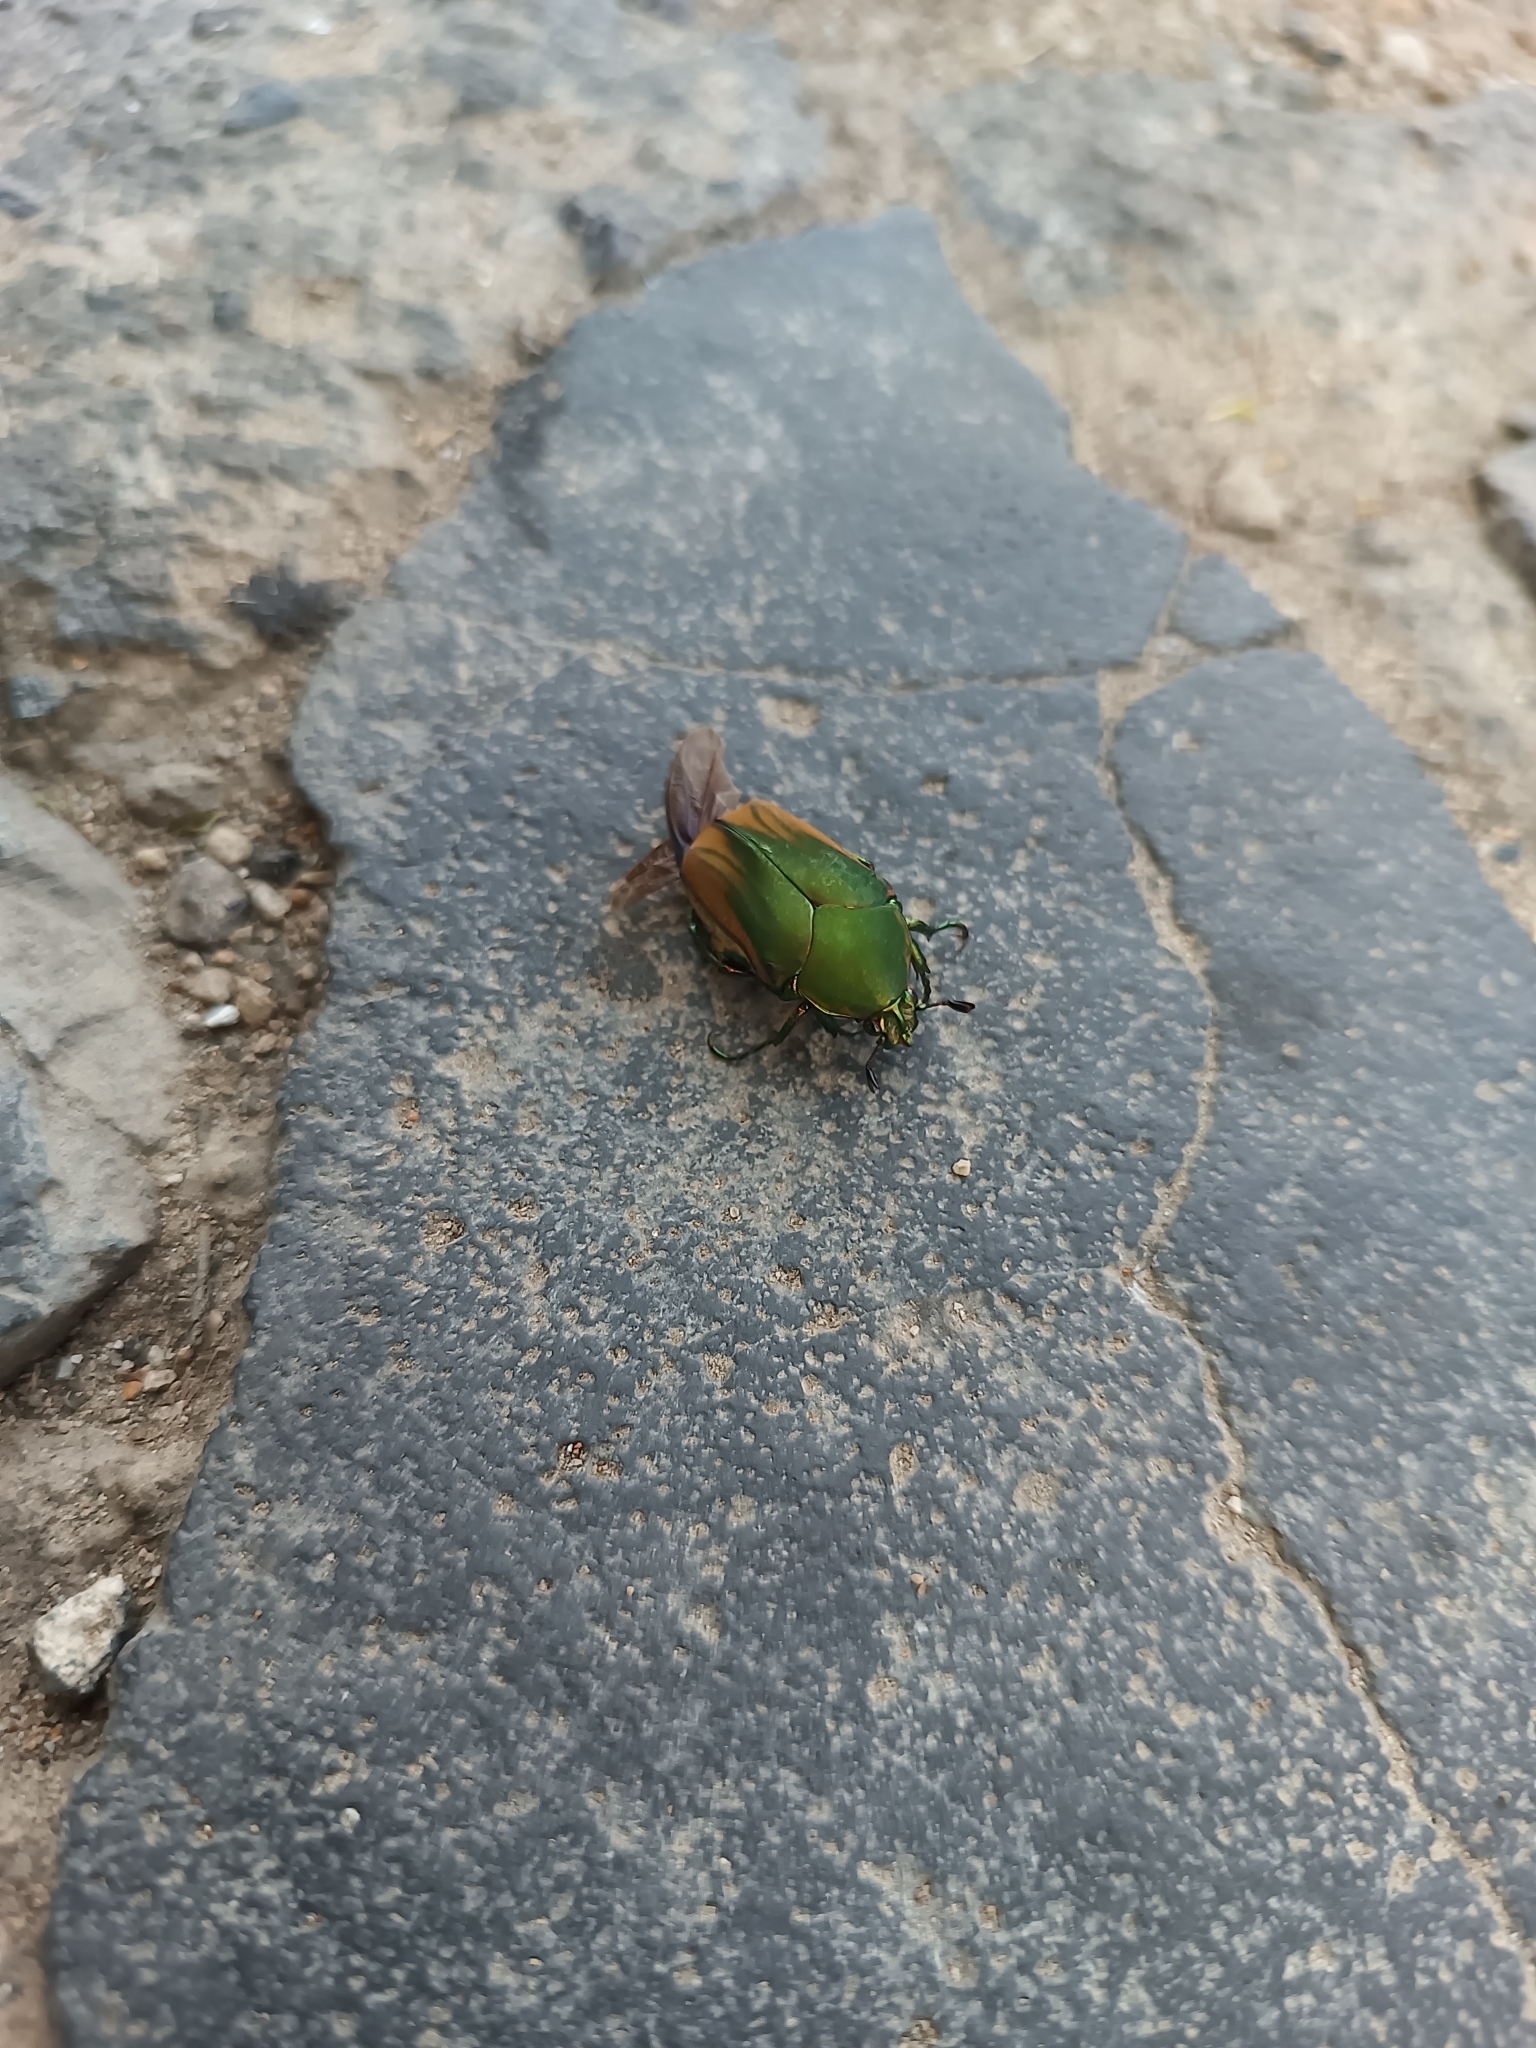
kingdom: Animalia
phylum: Arthropoda
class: Insecta
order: Coleoptera
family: Scarabaeidae
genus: Cotinis
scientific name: Cotinis mutabilis
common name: Figeater beetle
